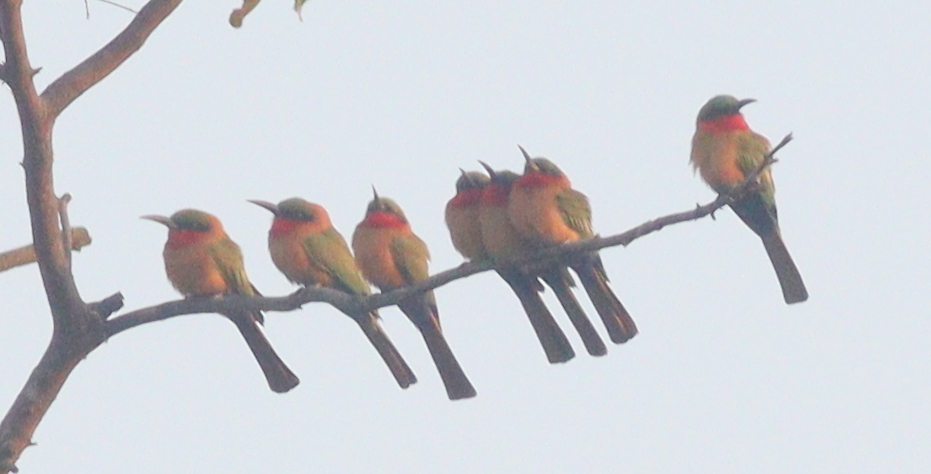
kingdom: Animalia
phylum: Chordata
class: Aves
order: Coraciiformes
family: Meropidae
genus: Merops
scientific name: Merops bulocki
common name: Red-throated bee-eater
